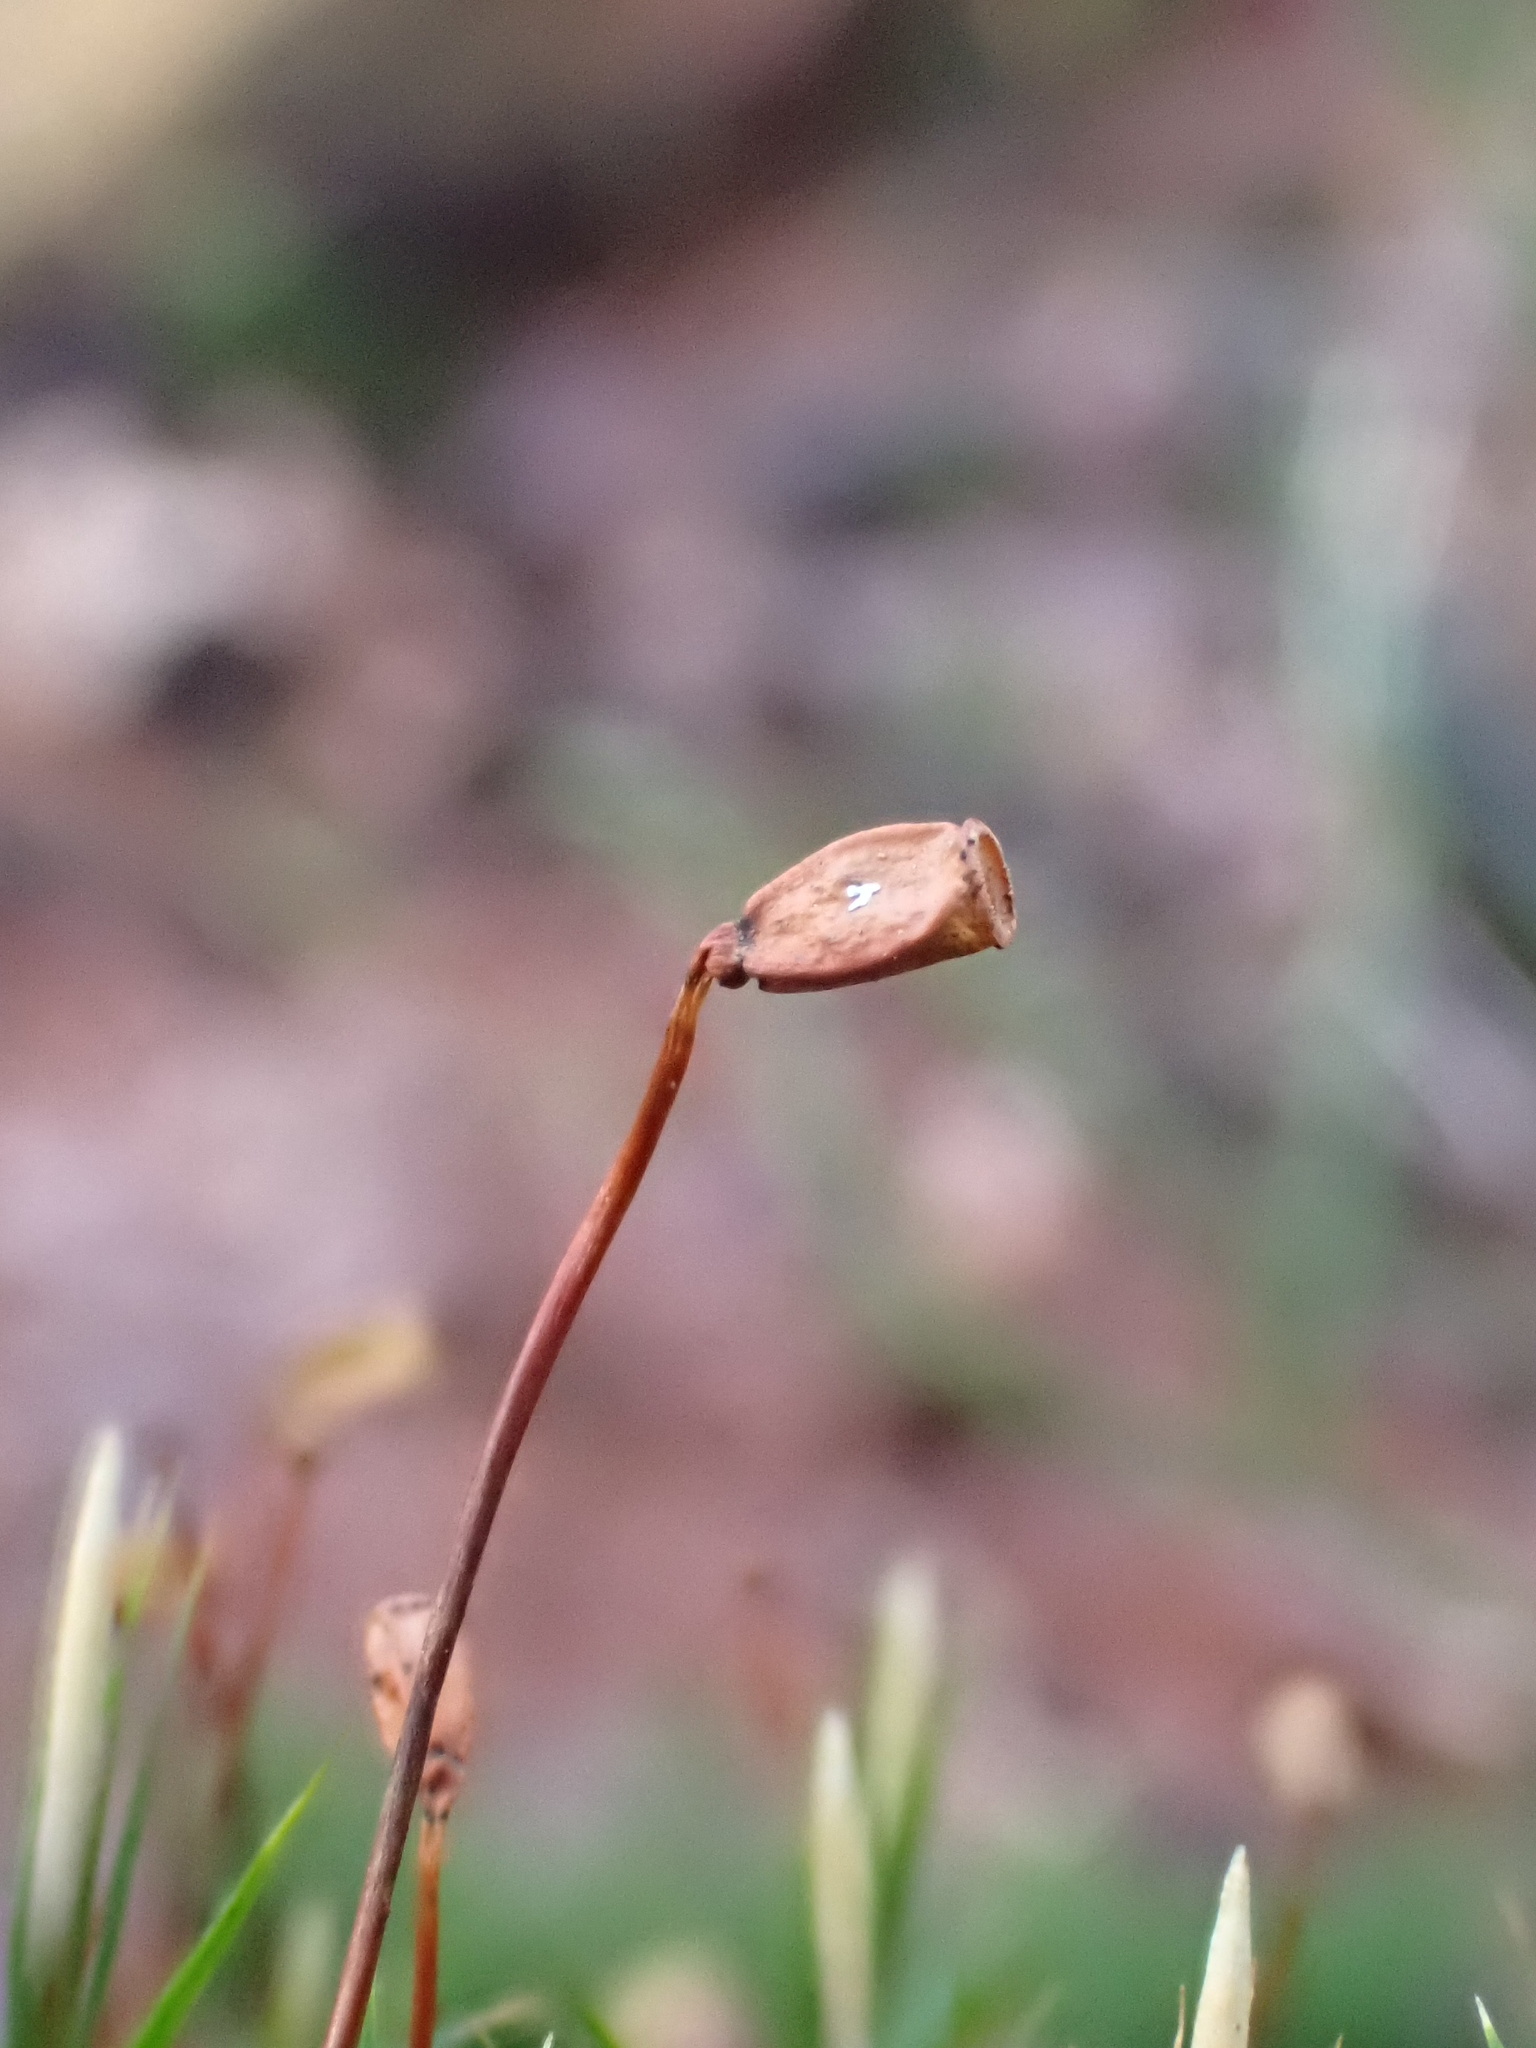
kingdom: Plantae
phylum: Bryophyta
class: Polytrichopsida
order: Polytrichales
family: Polytrichaceae
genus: Polytrichum
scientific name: Polytrichum formosum
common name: Bank haircap moss
